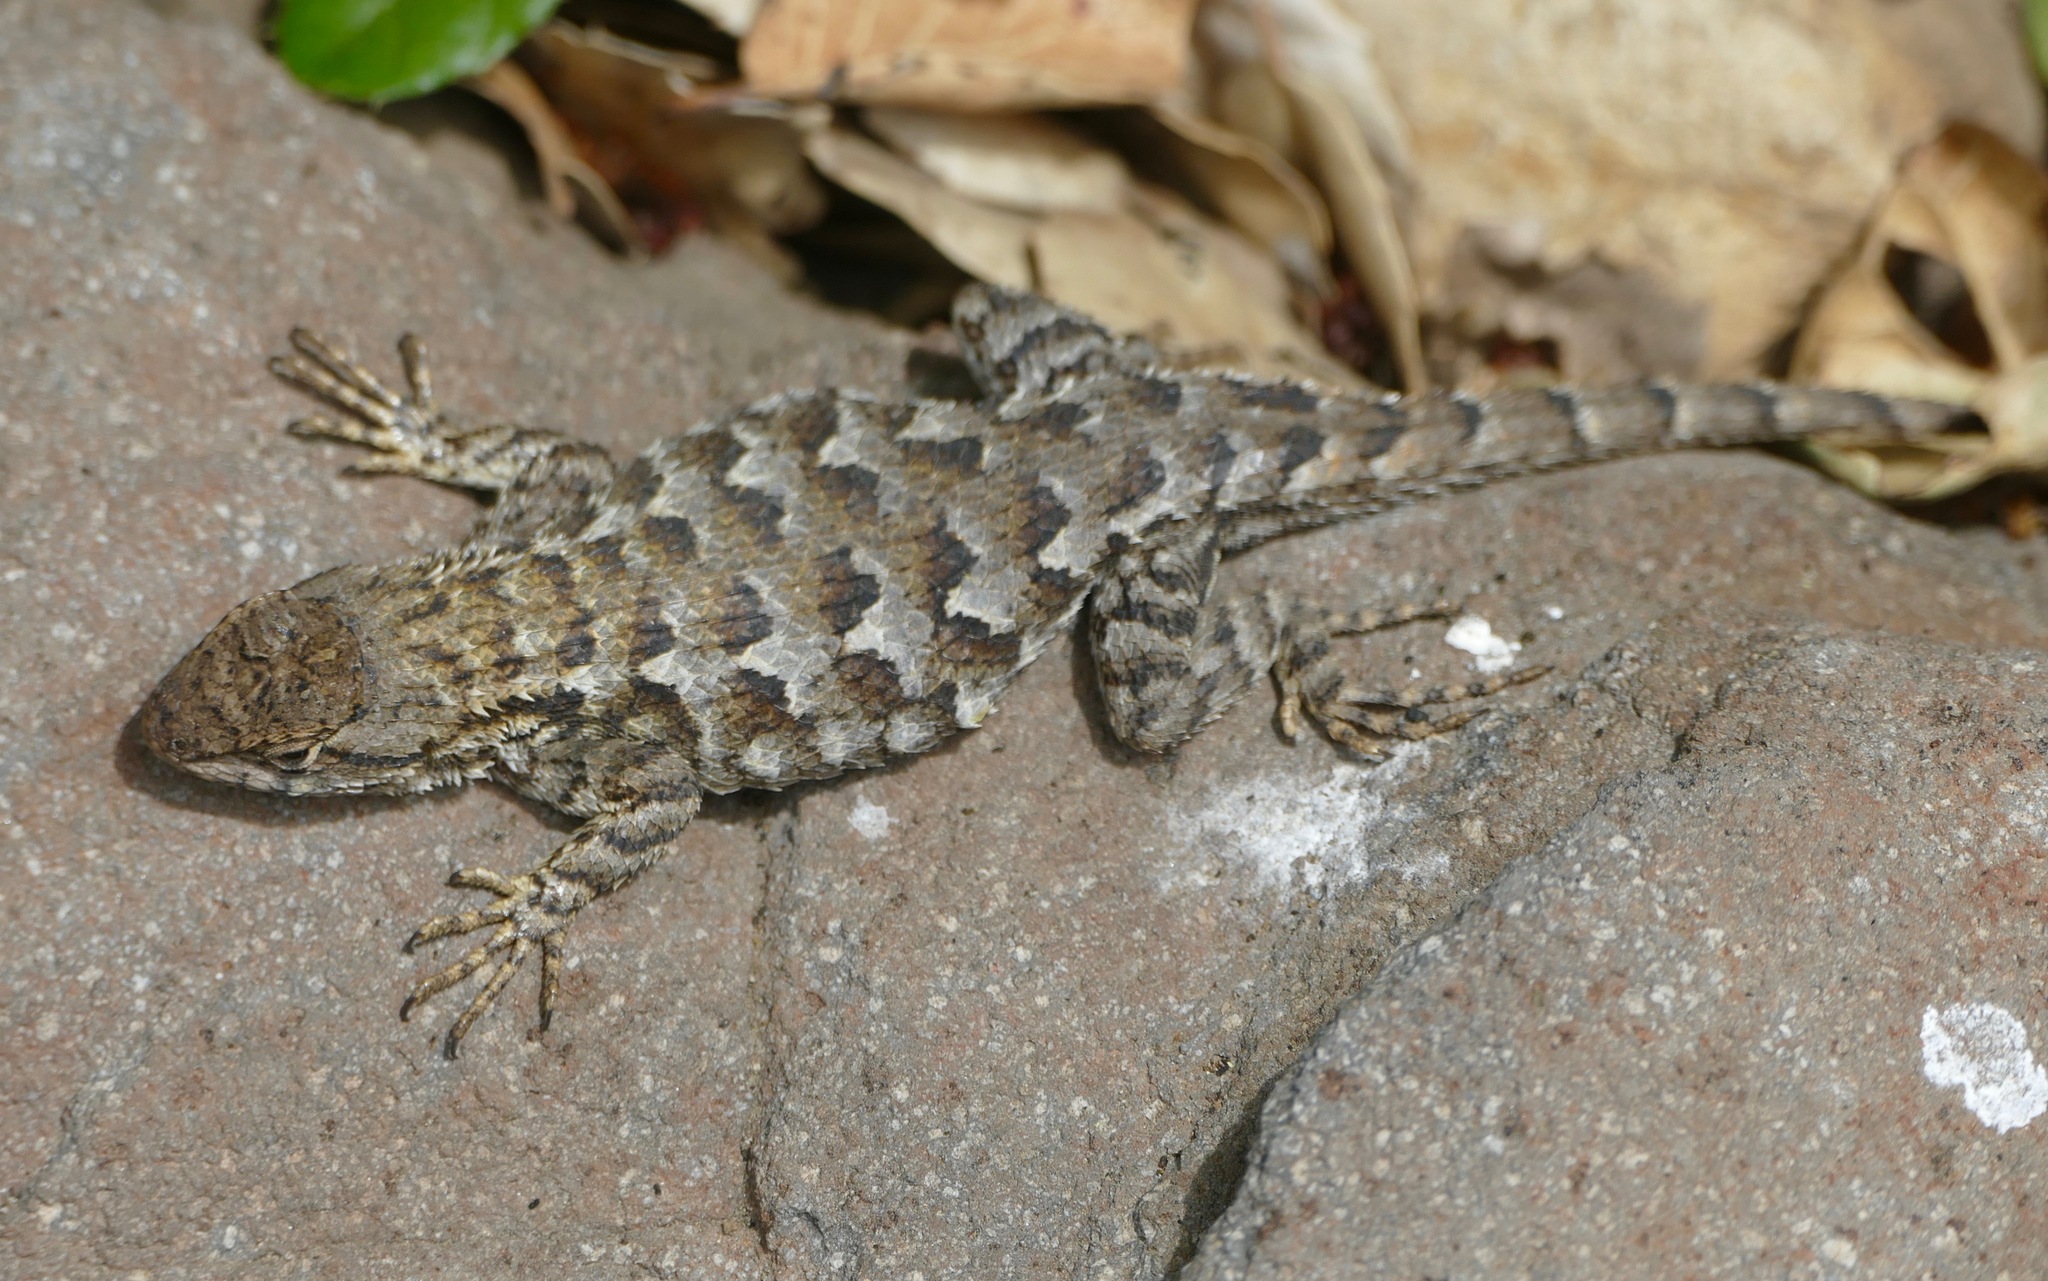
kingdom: Animalia
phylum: Chordata
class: Squamata
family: Phrynosomatidae
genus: Sceloporus
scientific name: Sceloporus occidentalis
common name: Western fence lizard
